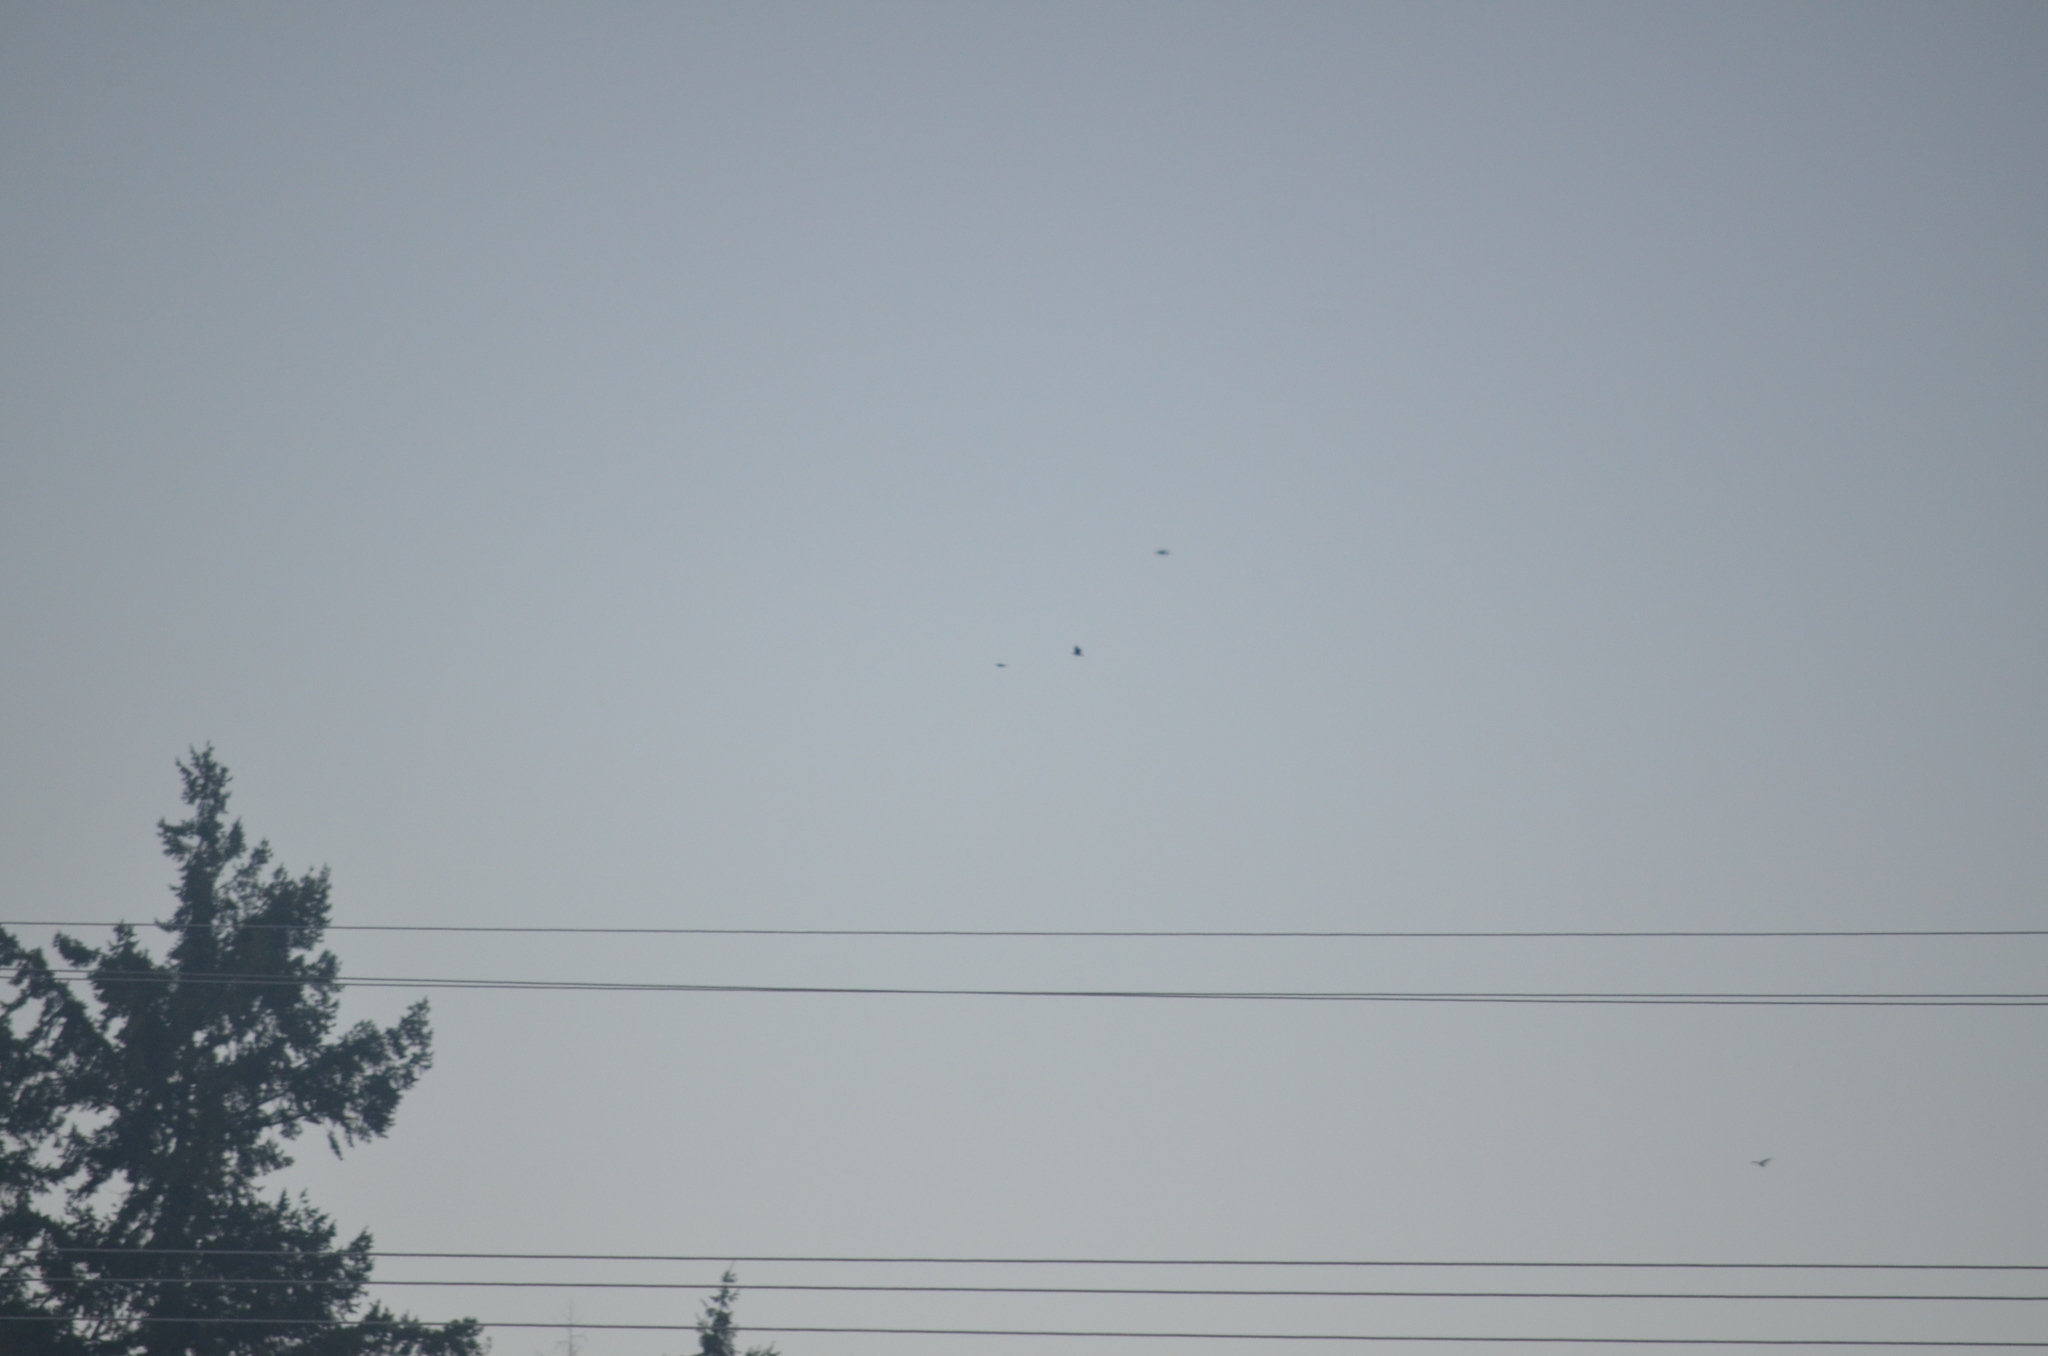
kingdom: Animalia
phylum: Chordata
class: Aves
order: Passeriformes
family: Corvidae
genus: Corvus
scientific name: Corvus corax
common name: Common raven
